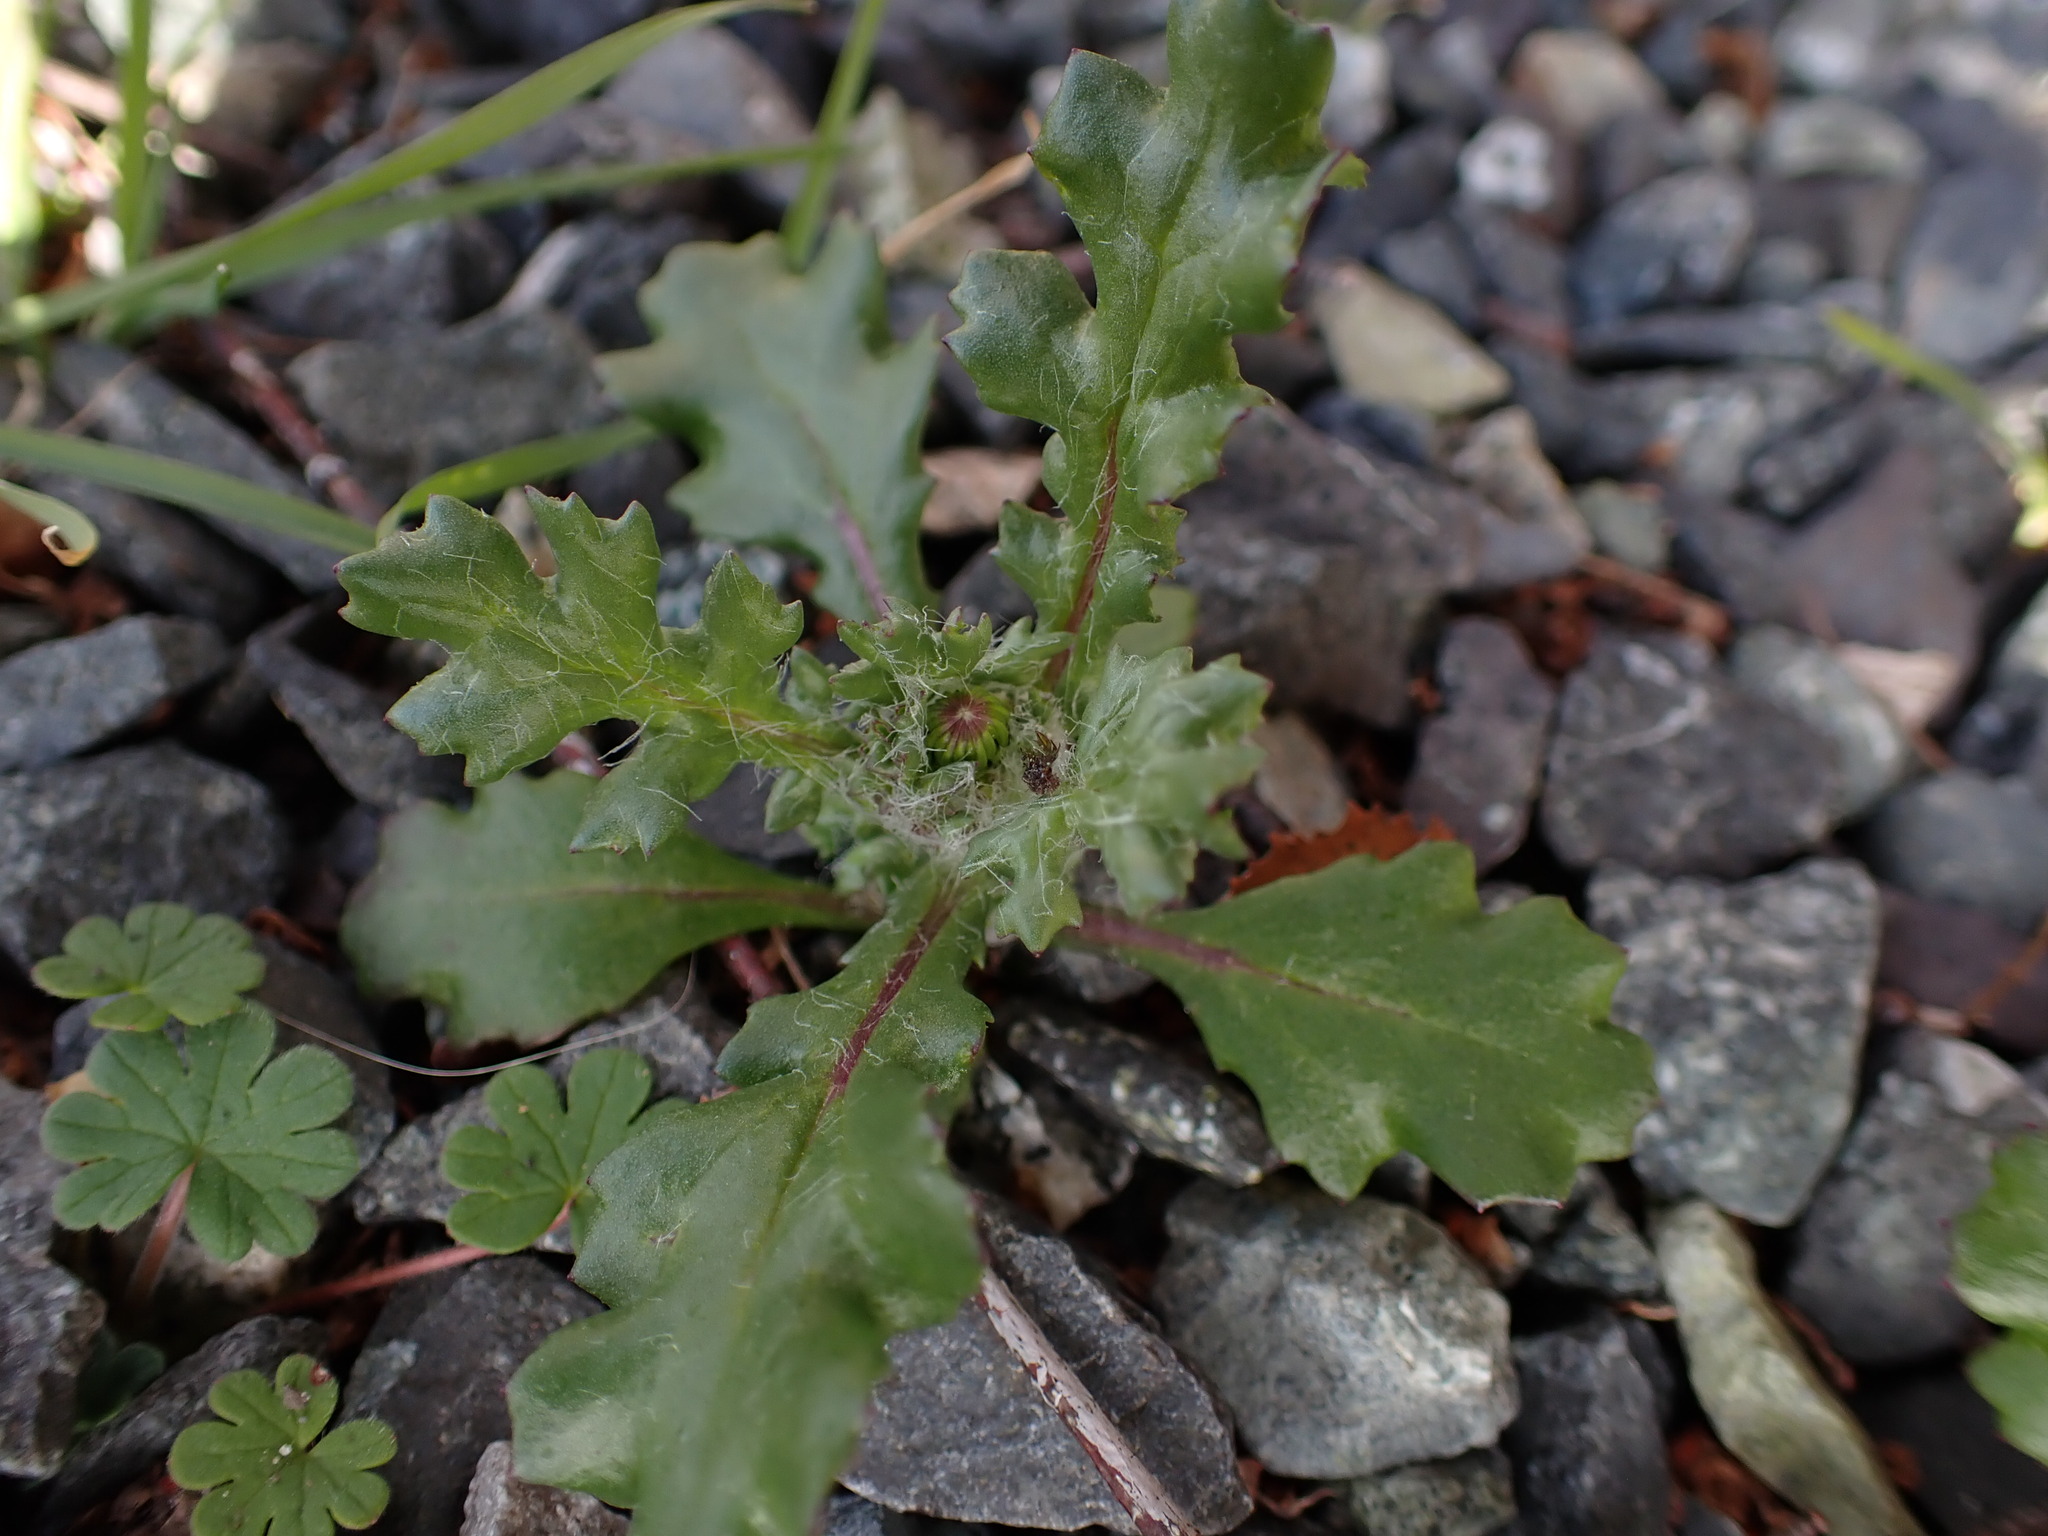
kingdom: Plantae
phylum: Tracheophyta
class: Magnoliopsida
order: Asterales
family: Asteraceae
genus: Senecio
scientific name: Senecio vulgaris
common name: Old-man-in-the-spring
